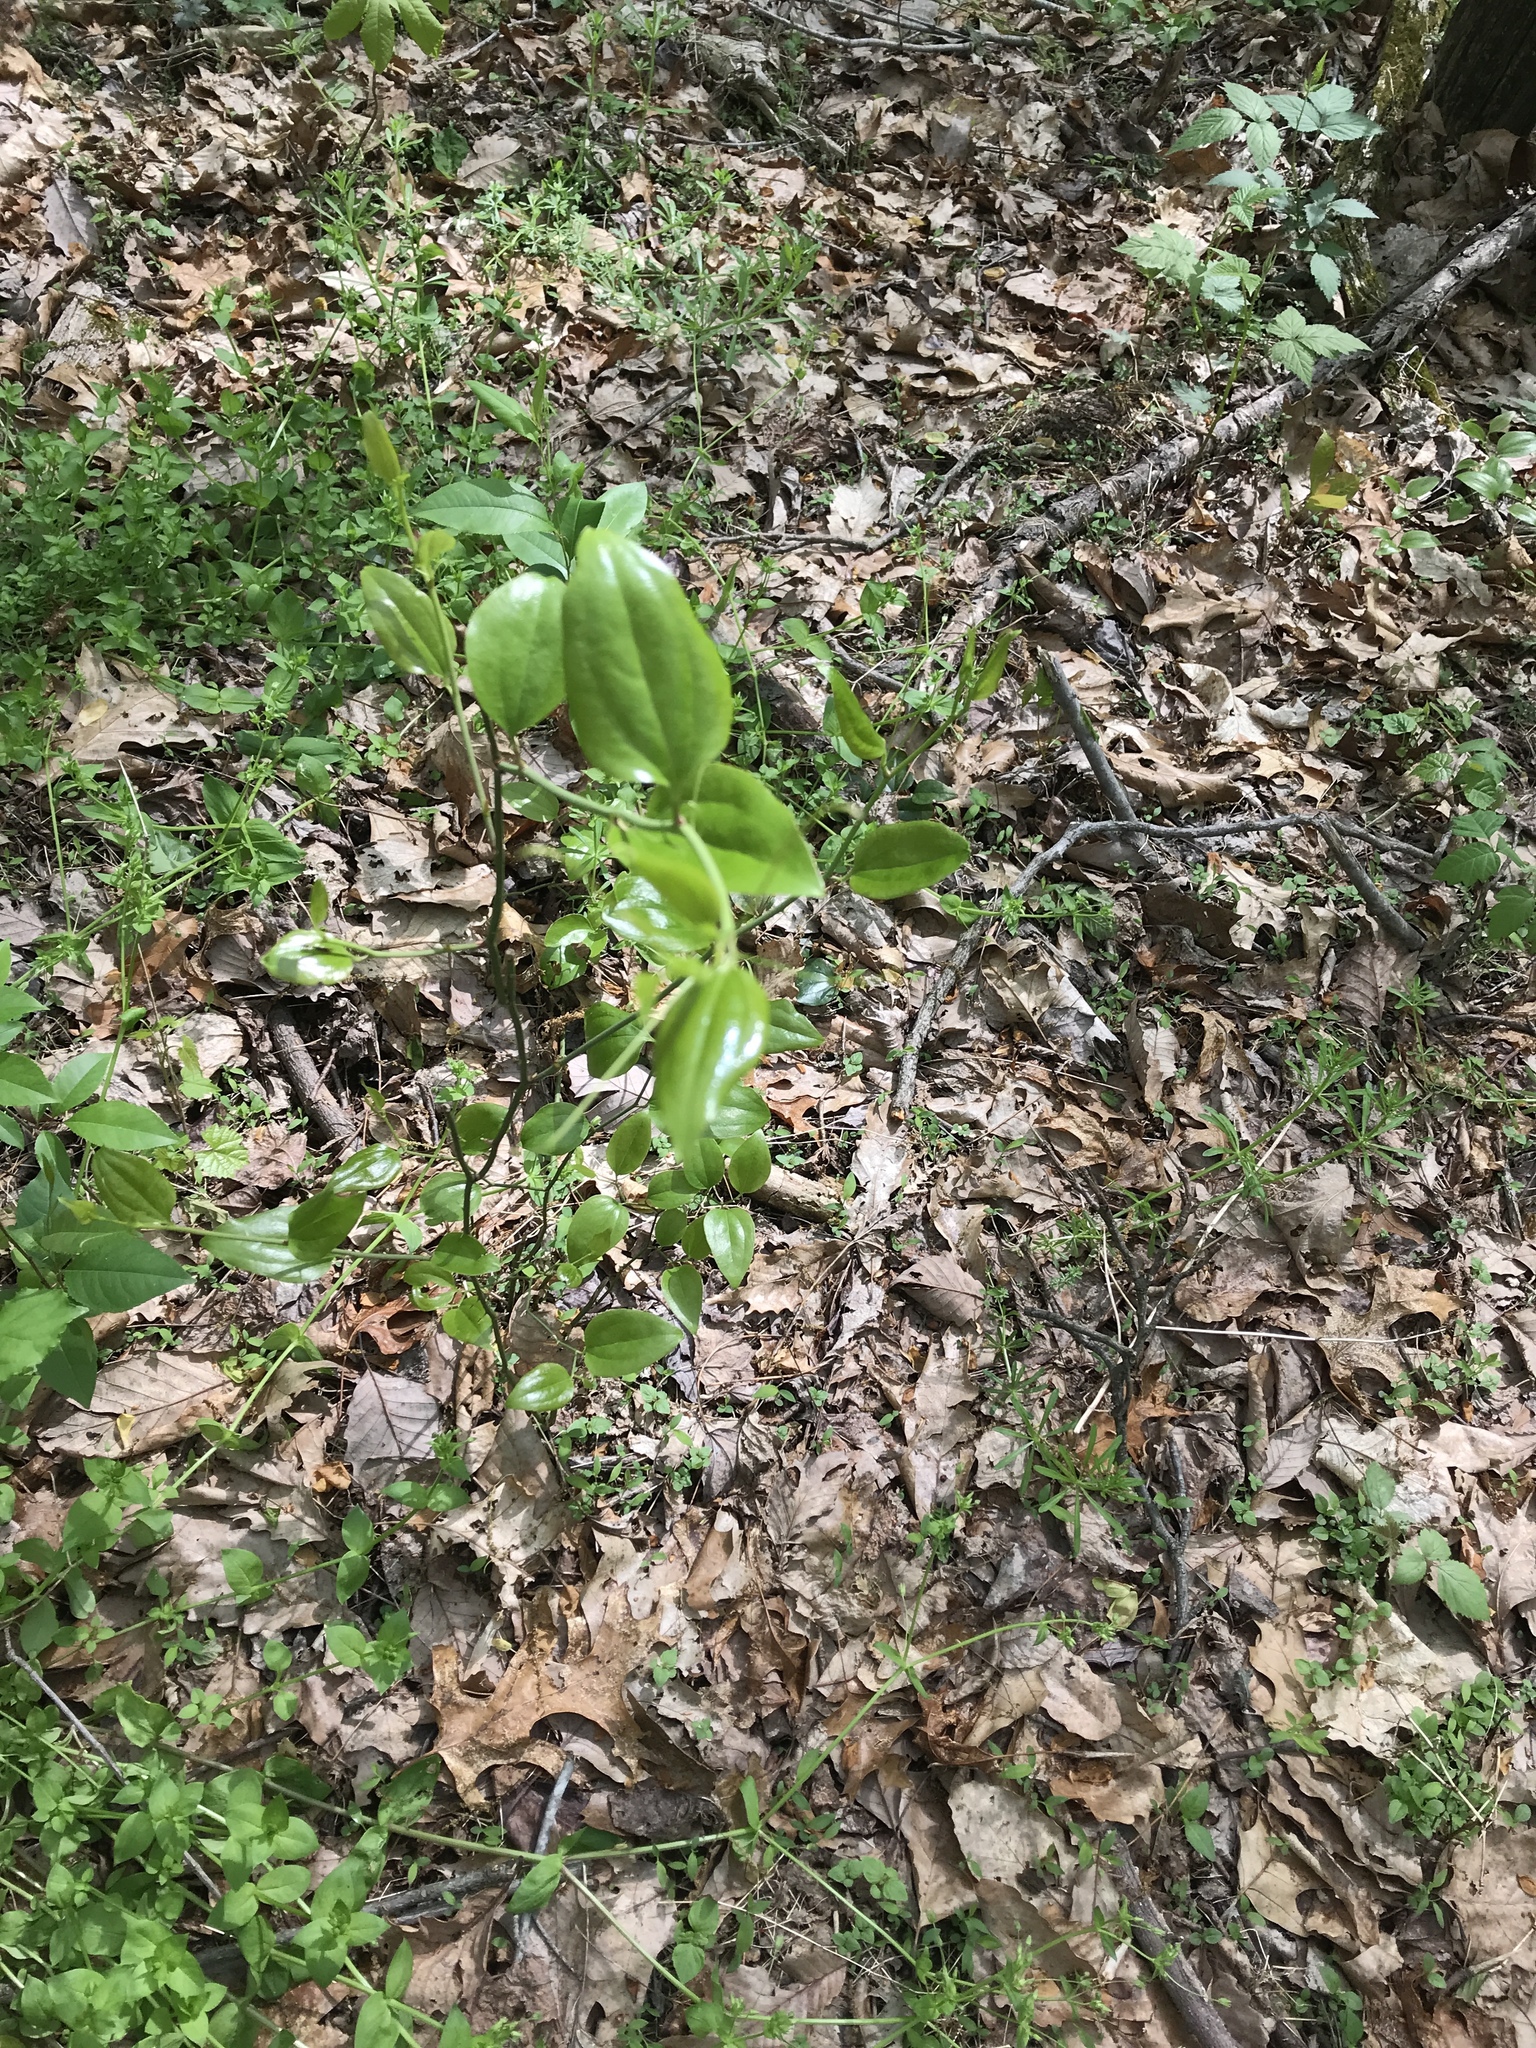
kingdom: Plantae
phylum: Tracheophyta
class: Liliopsida
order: Liliales
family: Smilacaceae
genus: Smilax
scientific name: Smilax rotundifolia
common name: Bullbriar
